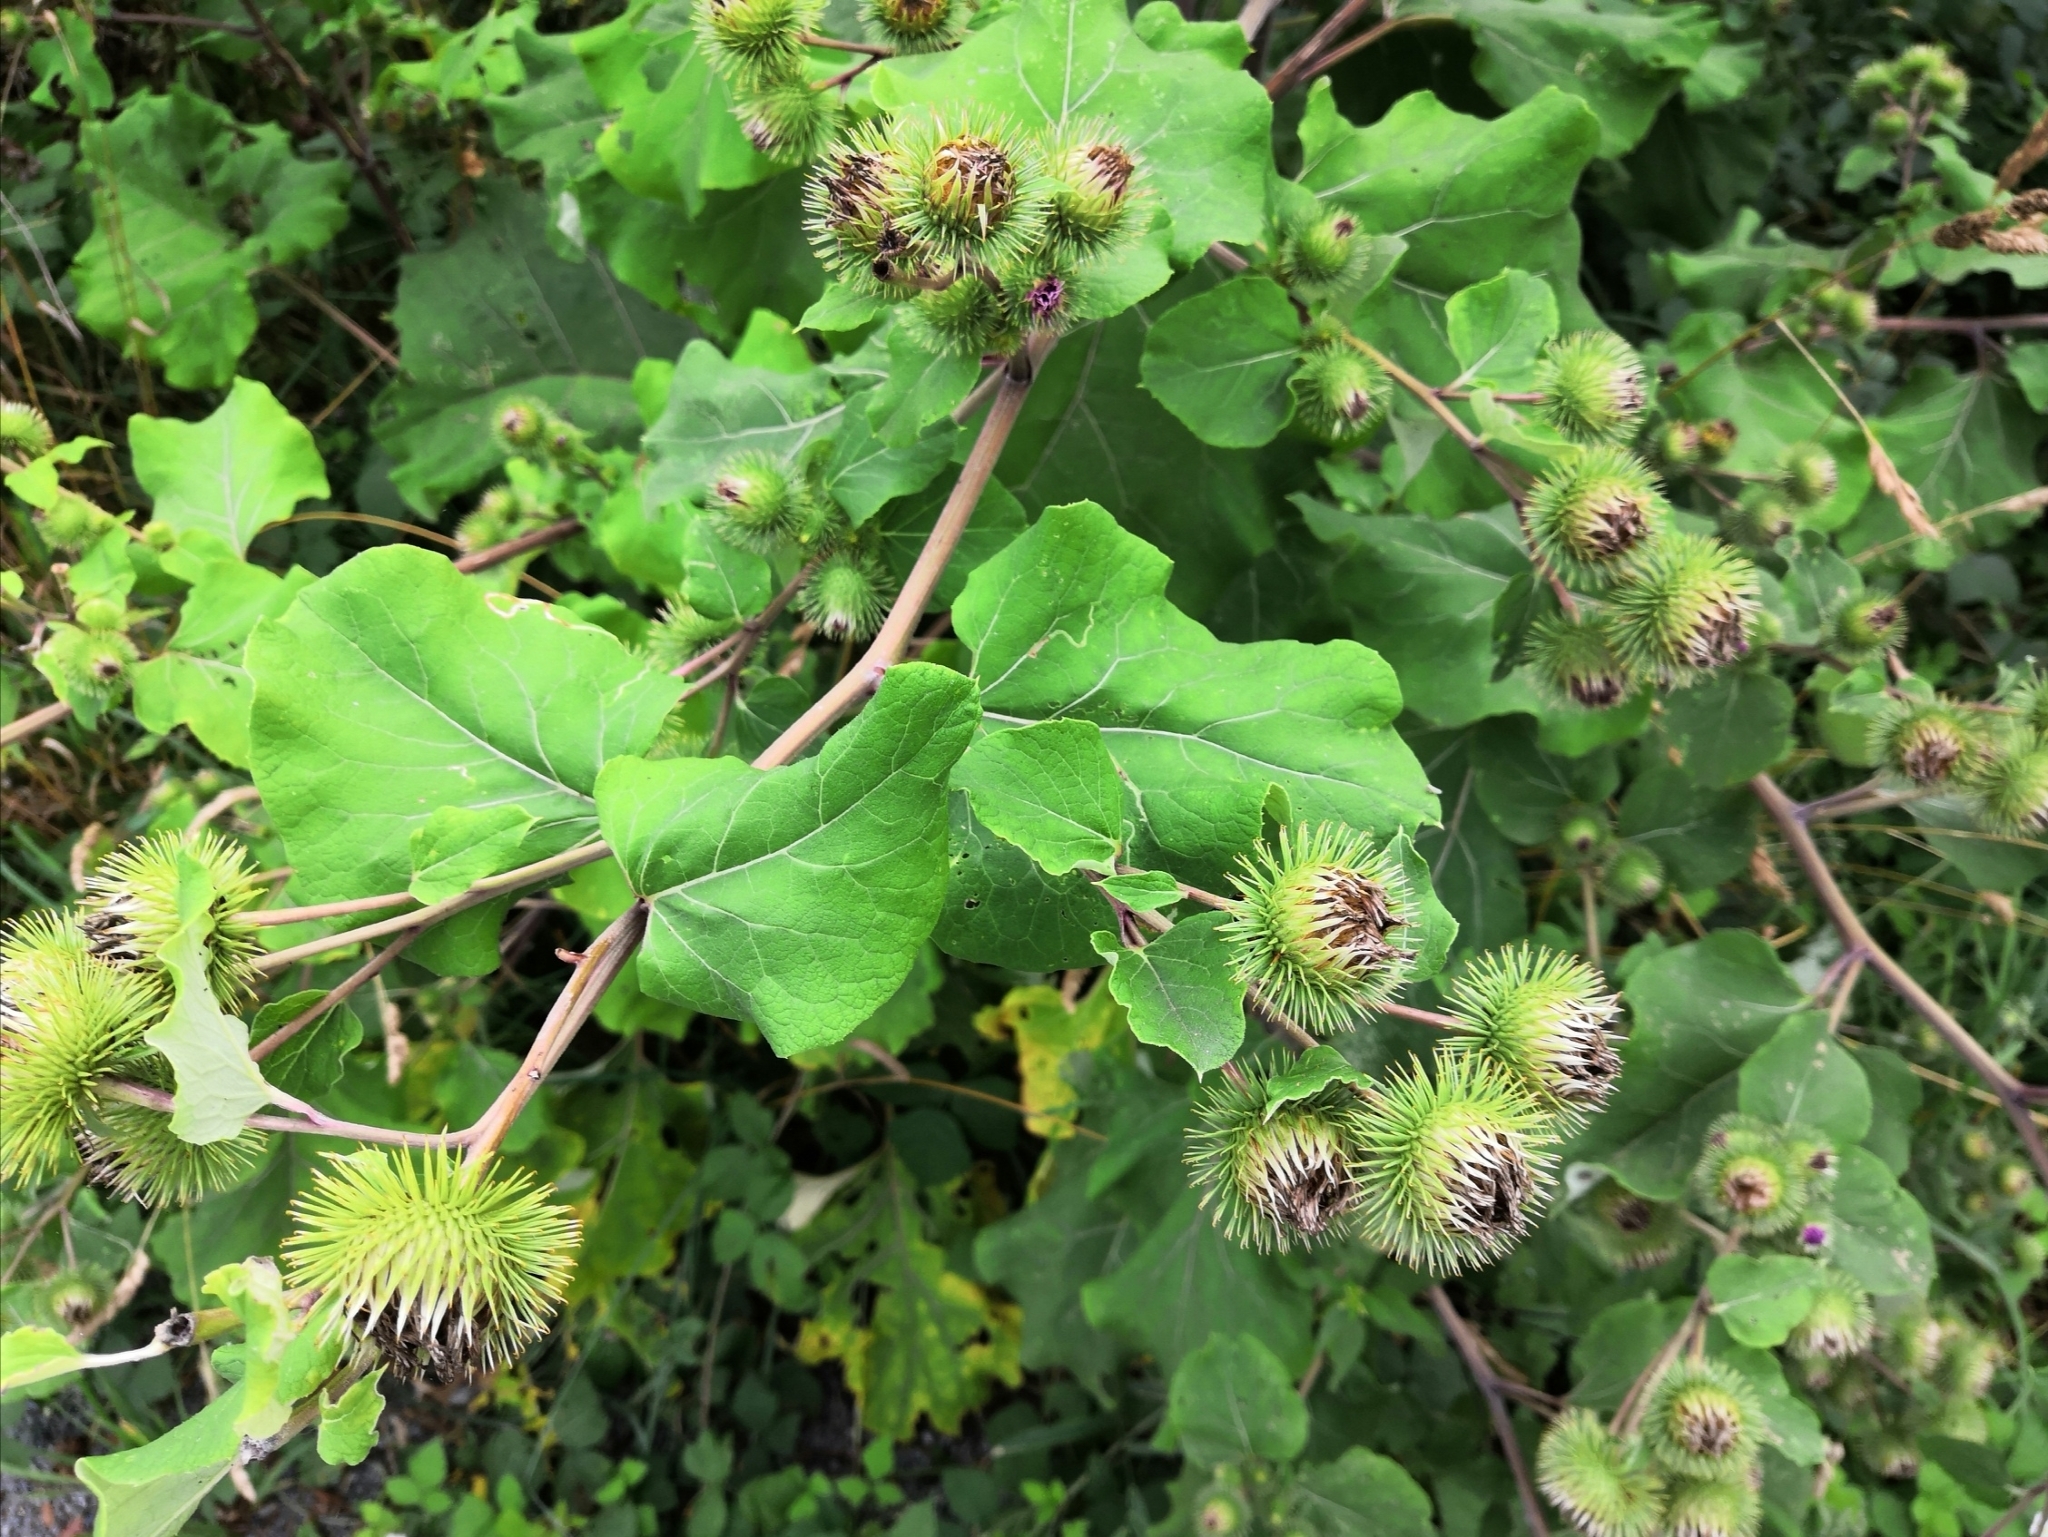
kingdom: Plantae
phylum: Tracheophyta
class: Magnoliopsida
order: Asterales
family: Asteraceae
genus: Arctium
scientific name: Arctium lappa
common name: Greater burdock
